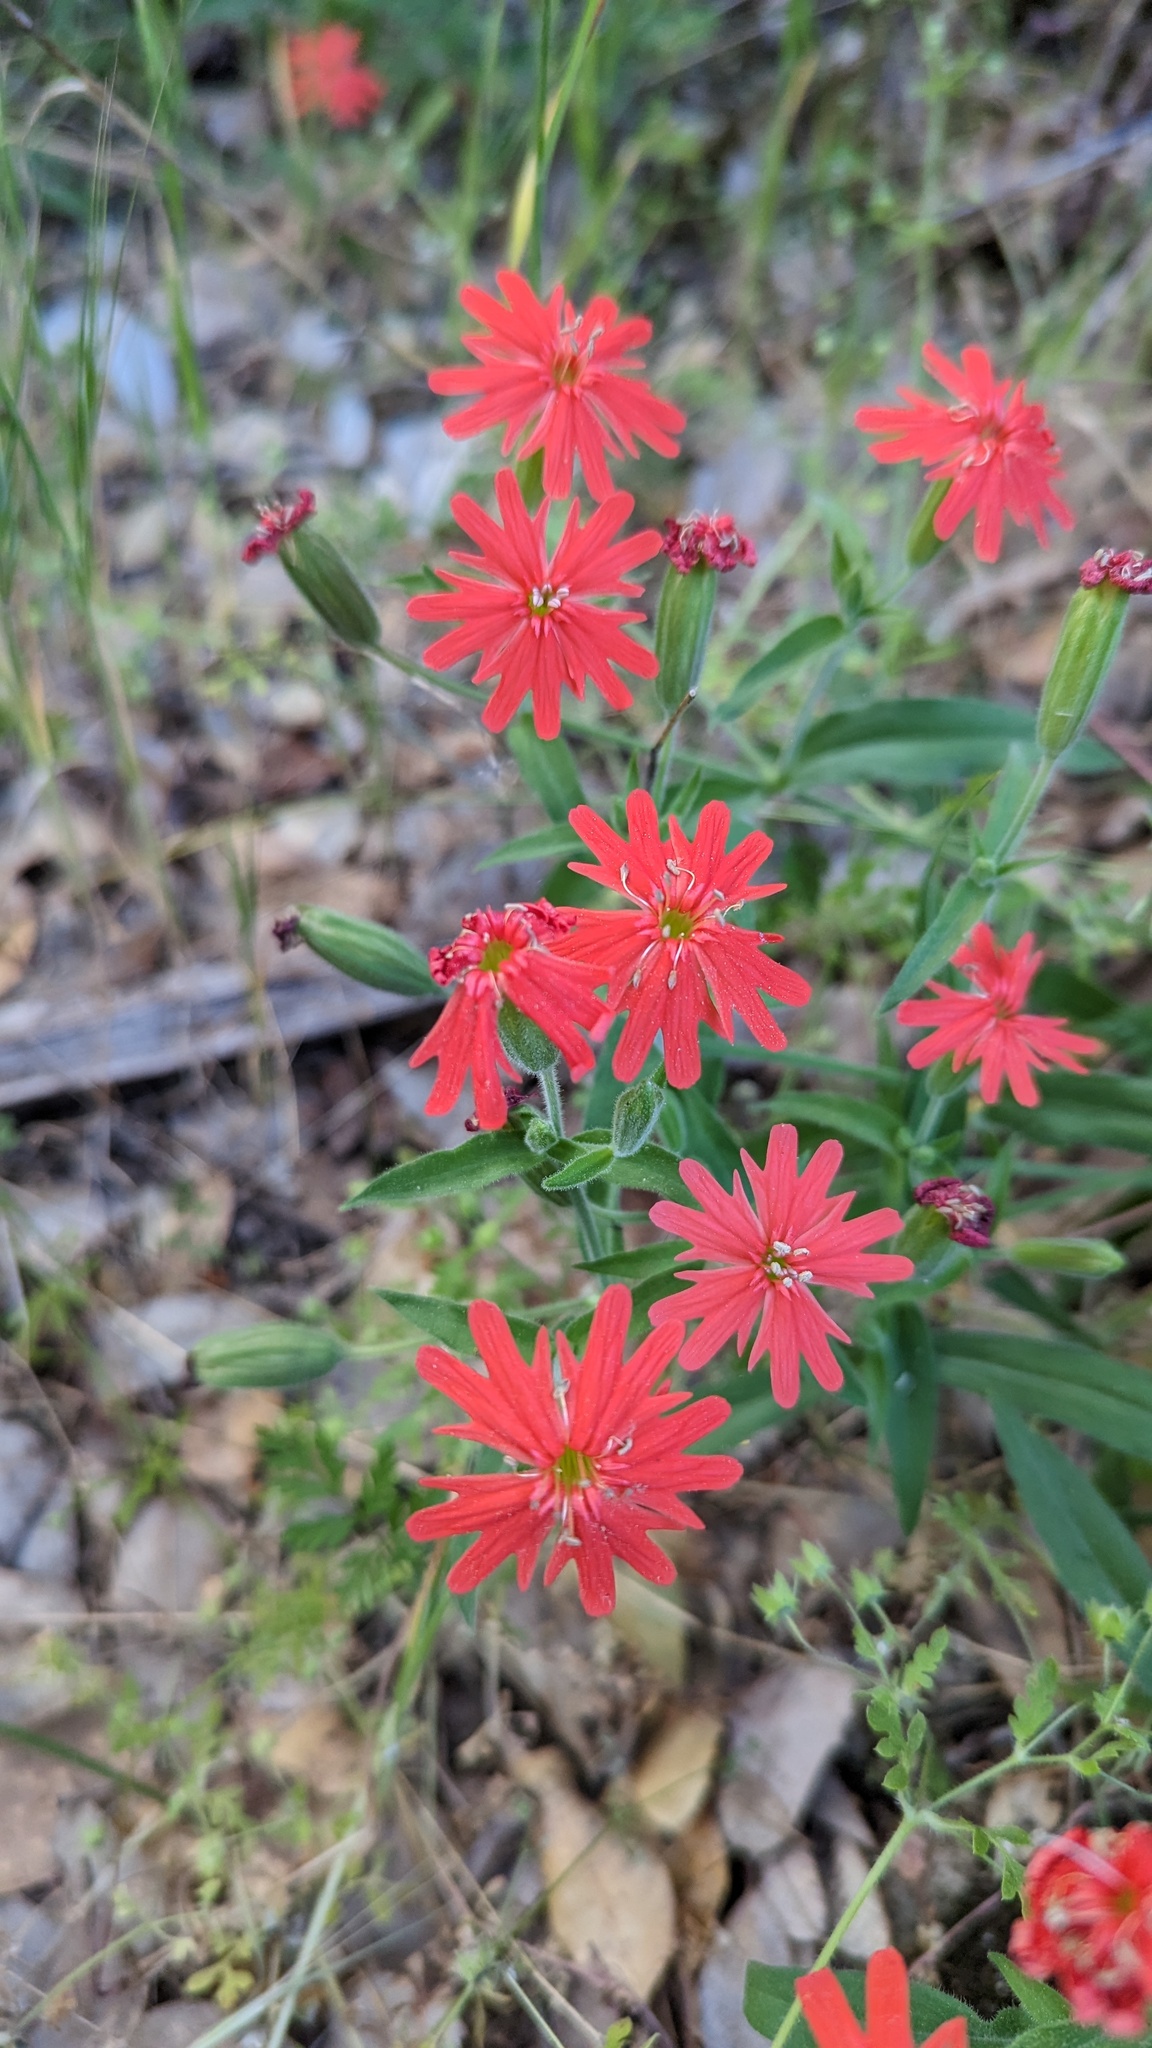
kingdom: Plantae
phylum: Tracheophyta
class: Magnoliopsida
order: Caryophyllales
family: Caryophyllaceae
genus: Silene
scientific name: Silene laciniata
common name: Indian-pink
